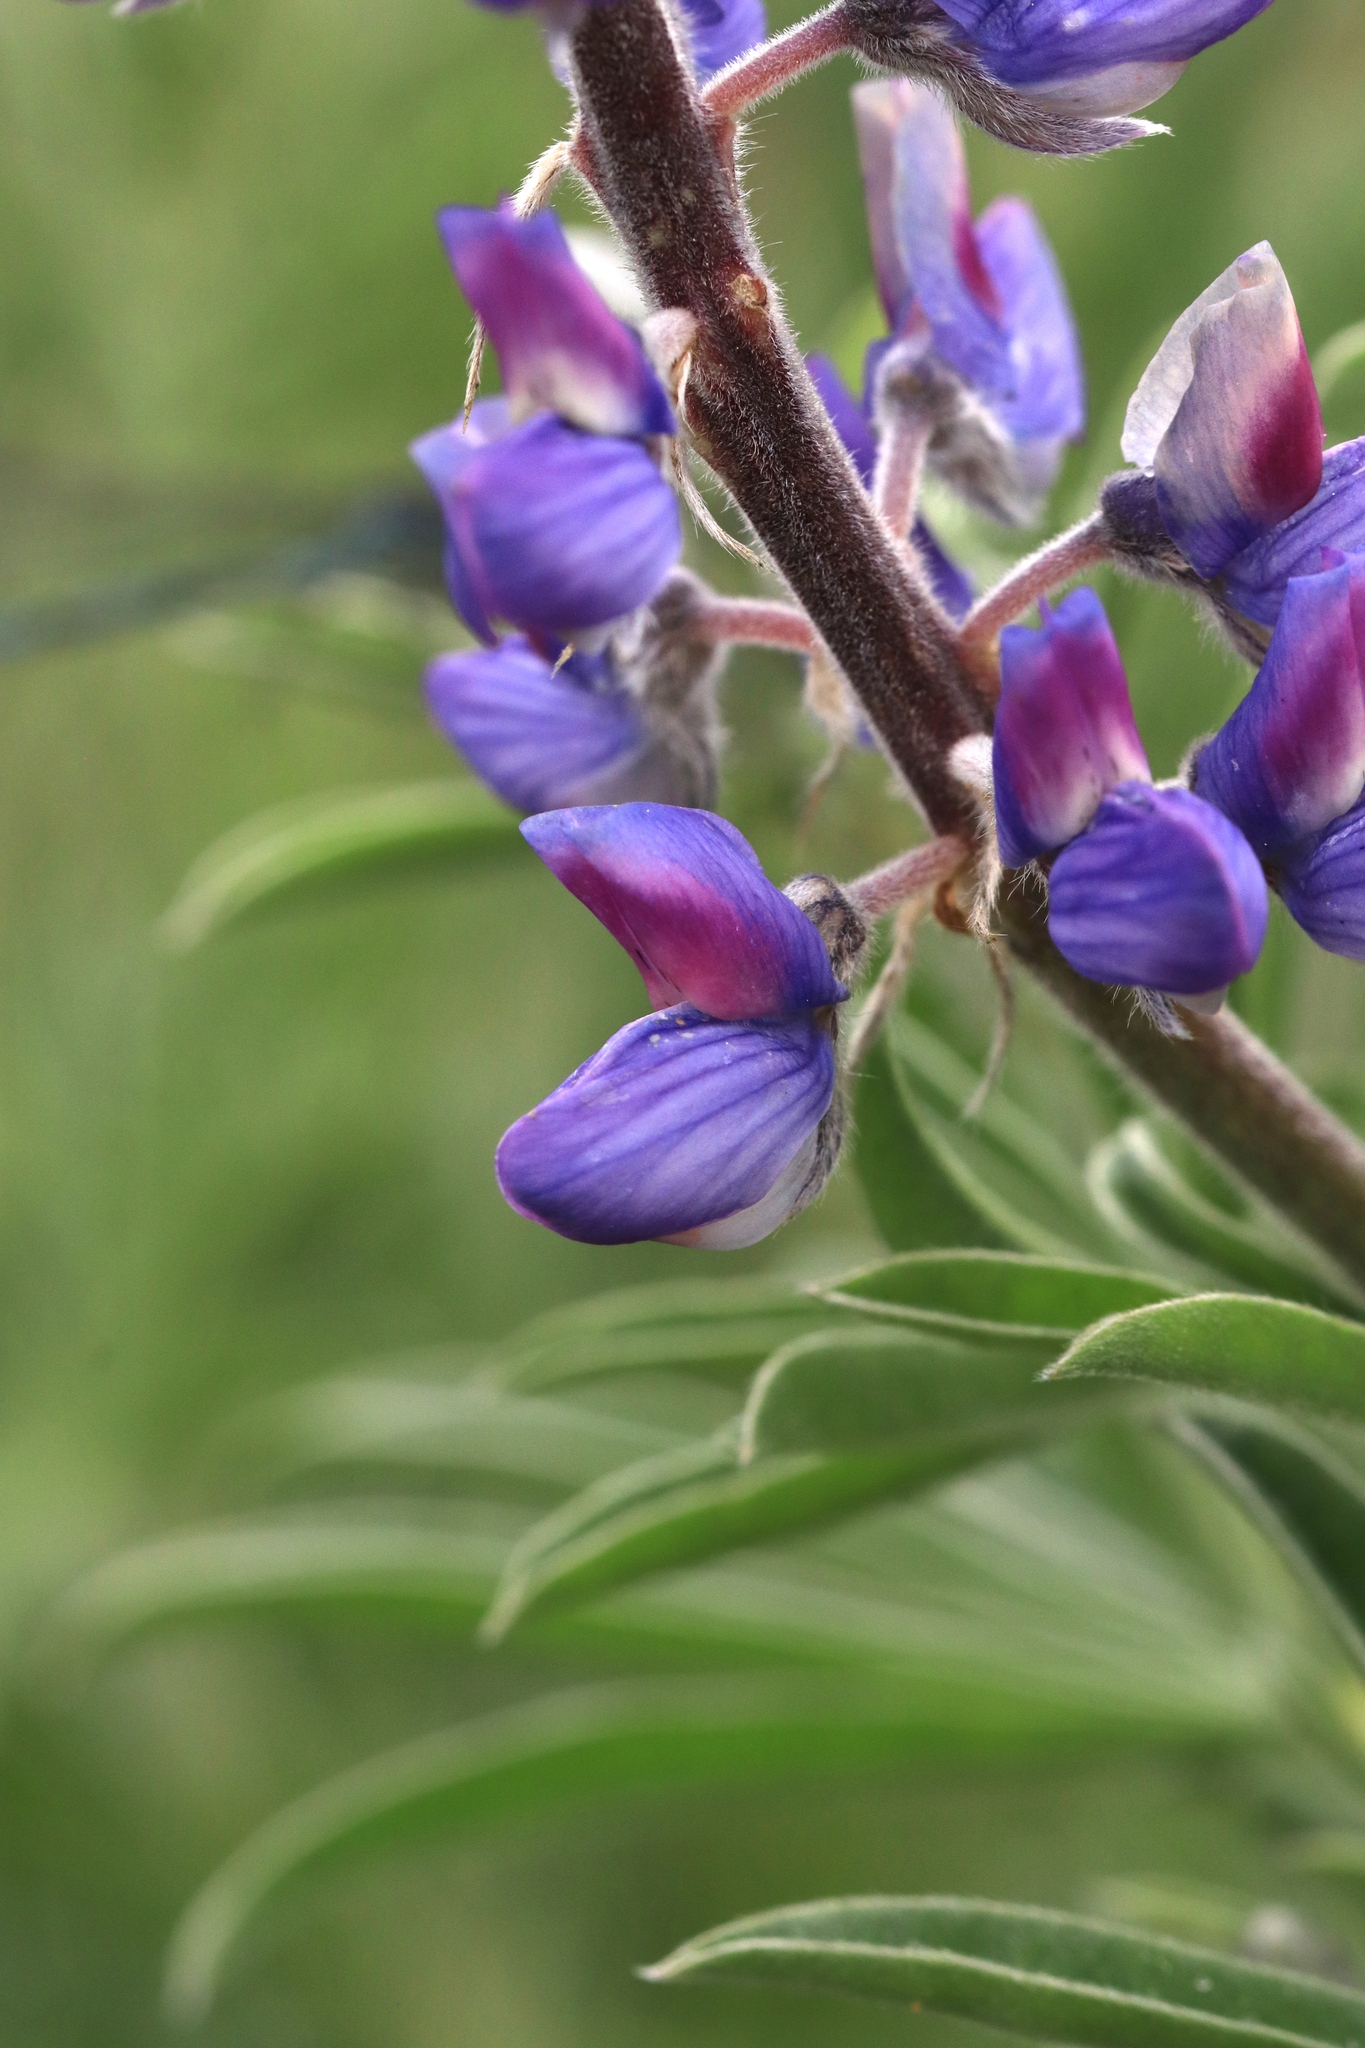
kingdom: Plantae
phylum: Tracheophyta
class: Magnoliopsida
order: Fabales
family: Fabaceae
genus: Lupinus
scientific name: Lupinus sericeus
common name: Silky lupine
